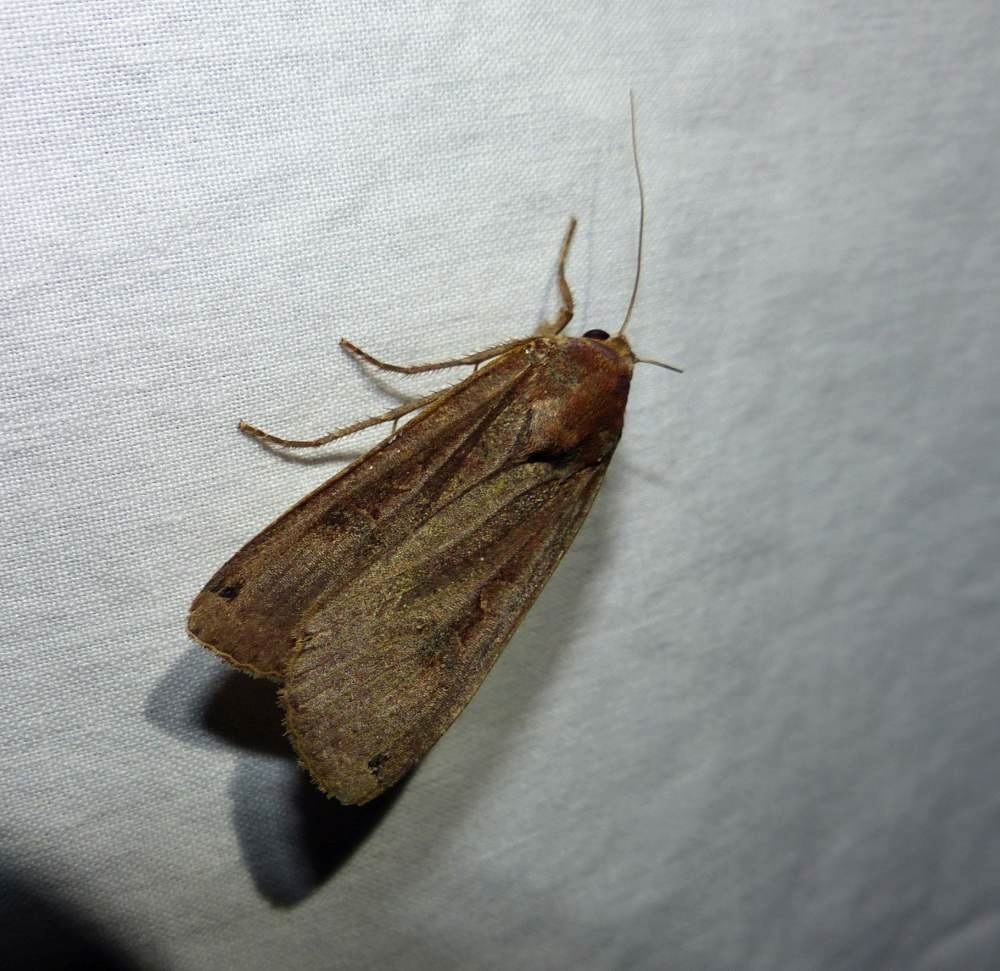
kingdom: Animalia
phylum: Arthropoda
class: Insecta
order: Lepidoptera
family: Noctuidae
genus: Noctua
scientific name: Noctua pronuba
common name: Large yellow underwing
